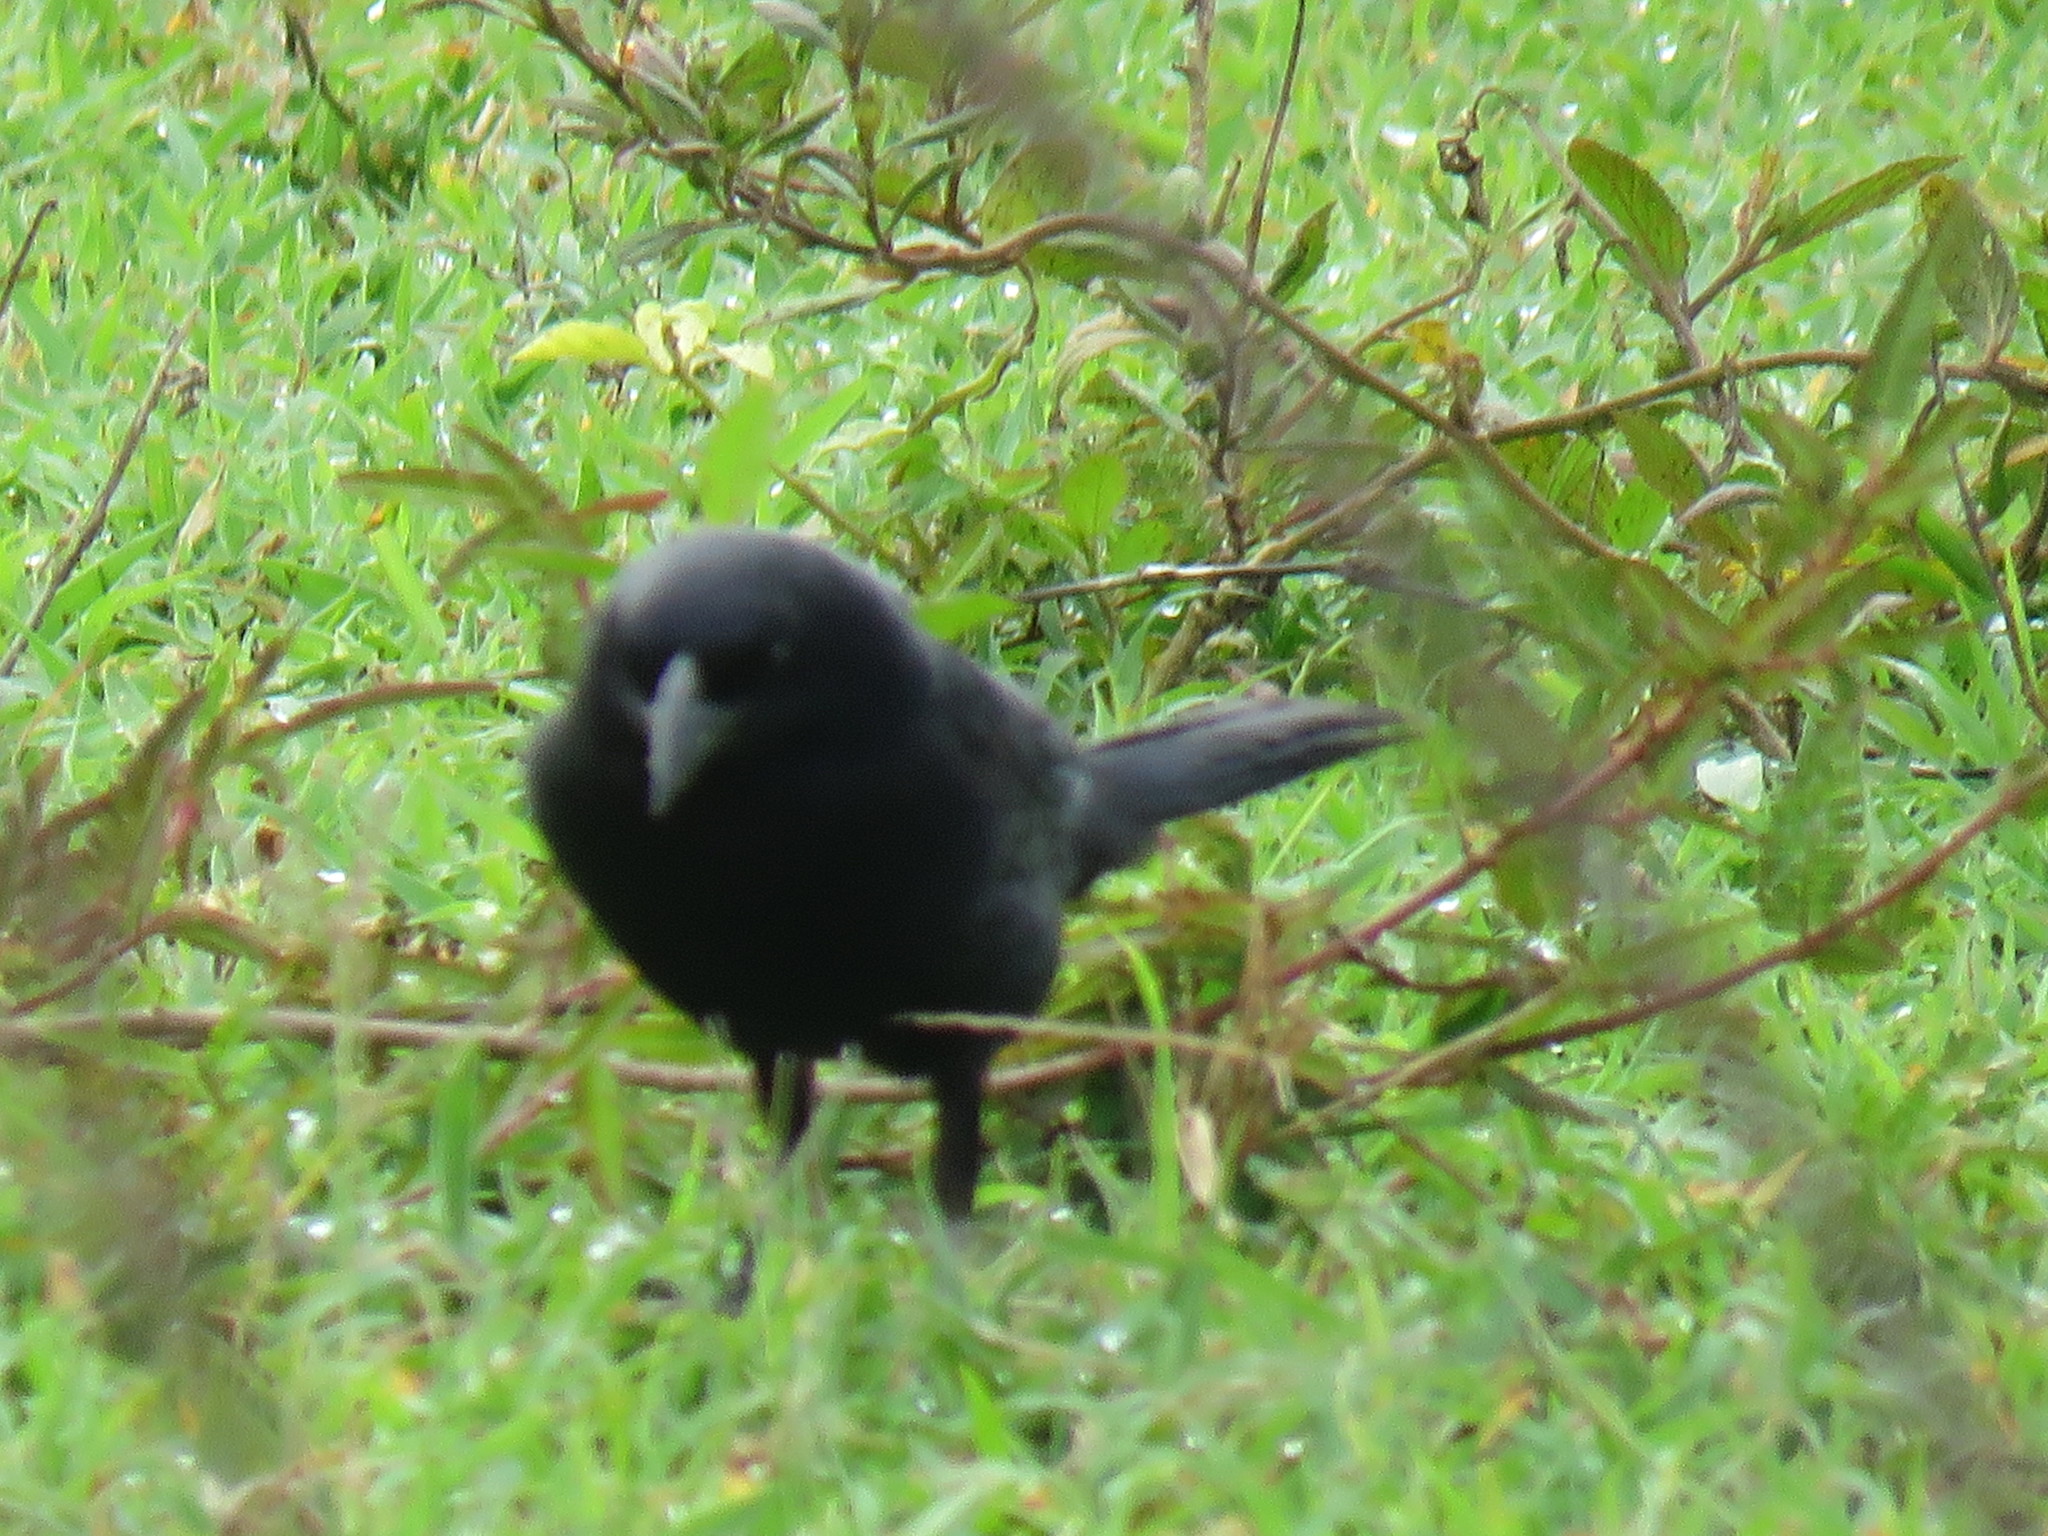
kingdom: Animalia
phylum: Chordata
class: Aves
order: Passeriformes
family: Icteridae
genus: Molothrus
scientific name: Molothrus aeneus
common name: Bronzed cowbird
